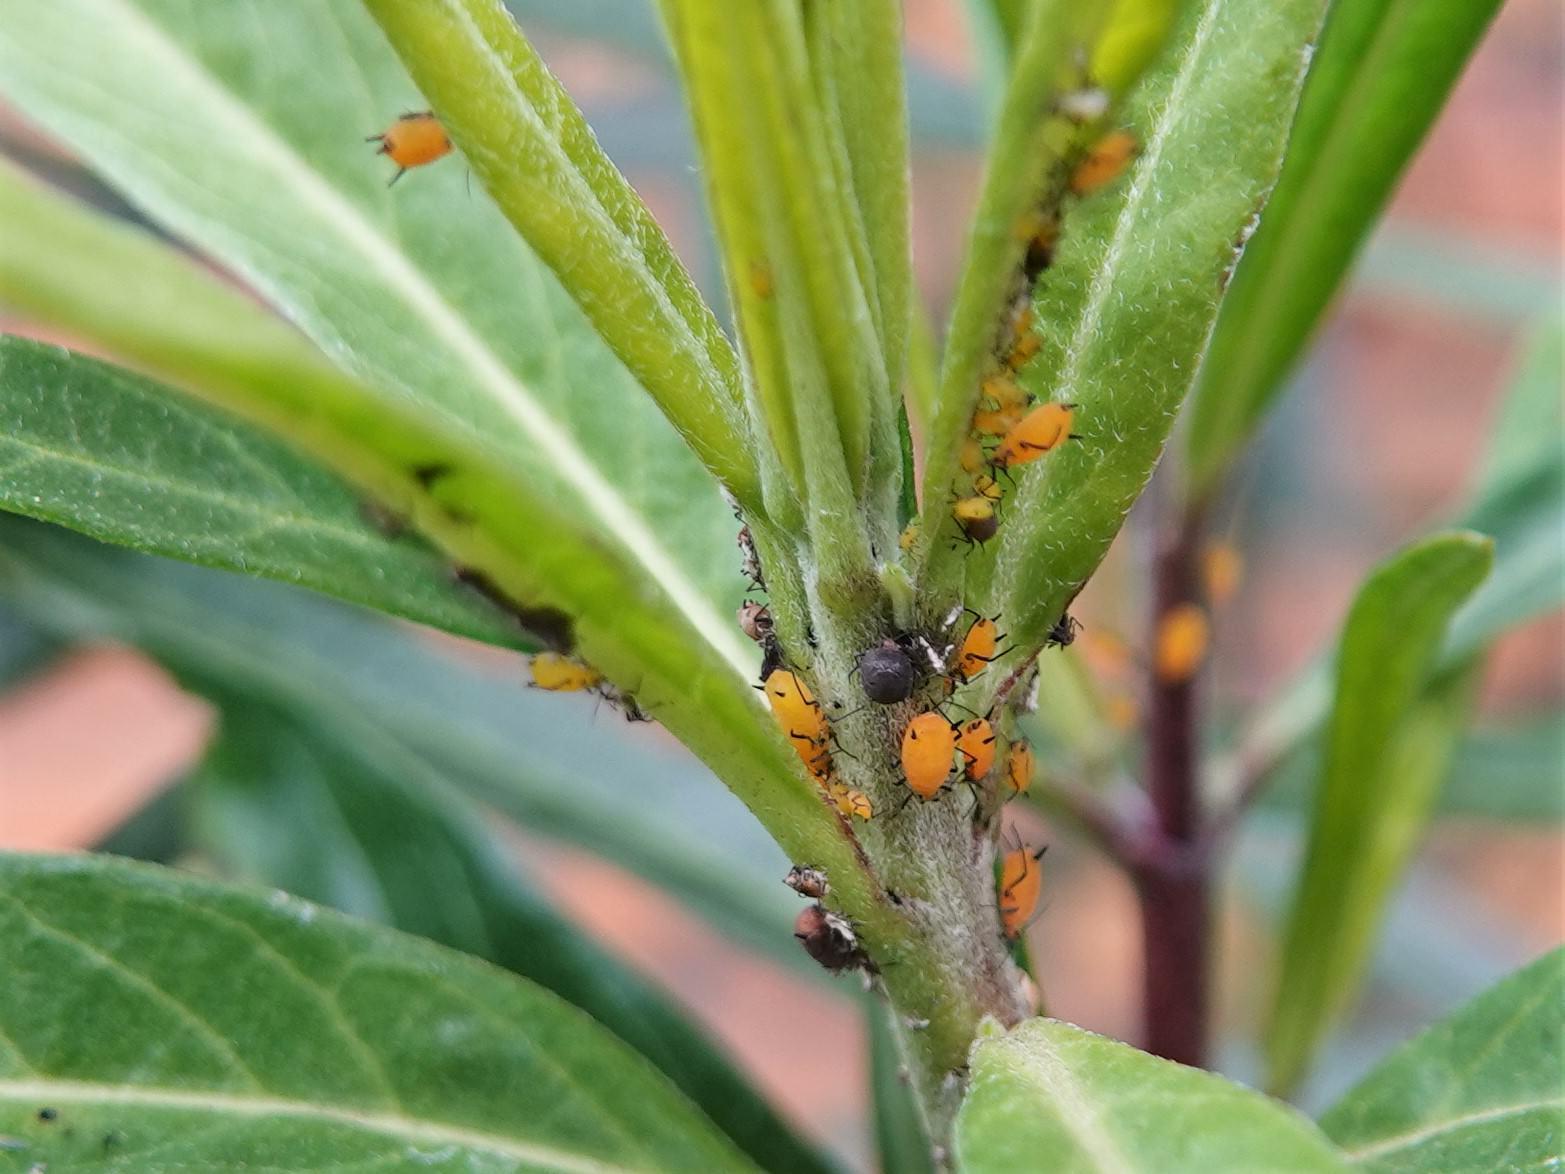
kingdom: Animalia
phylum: Arthropoda
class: Insecta
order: Hemiptera
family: Aphididae
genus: Aphis
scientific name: Aphis nerii
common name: Oleander aphid
